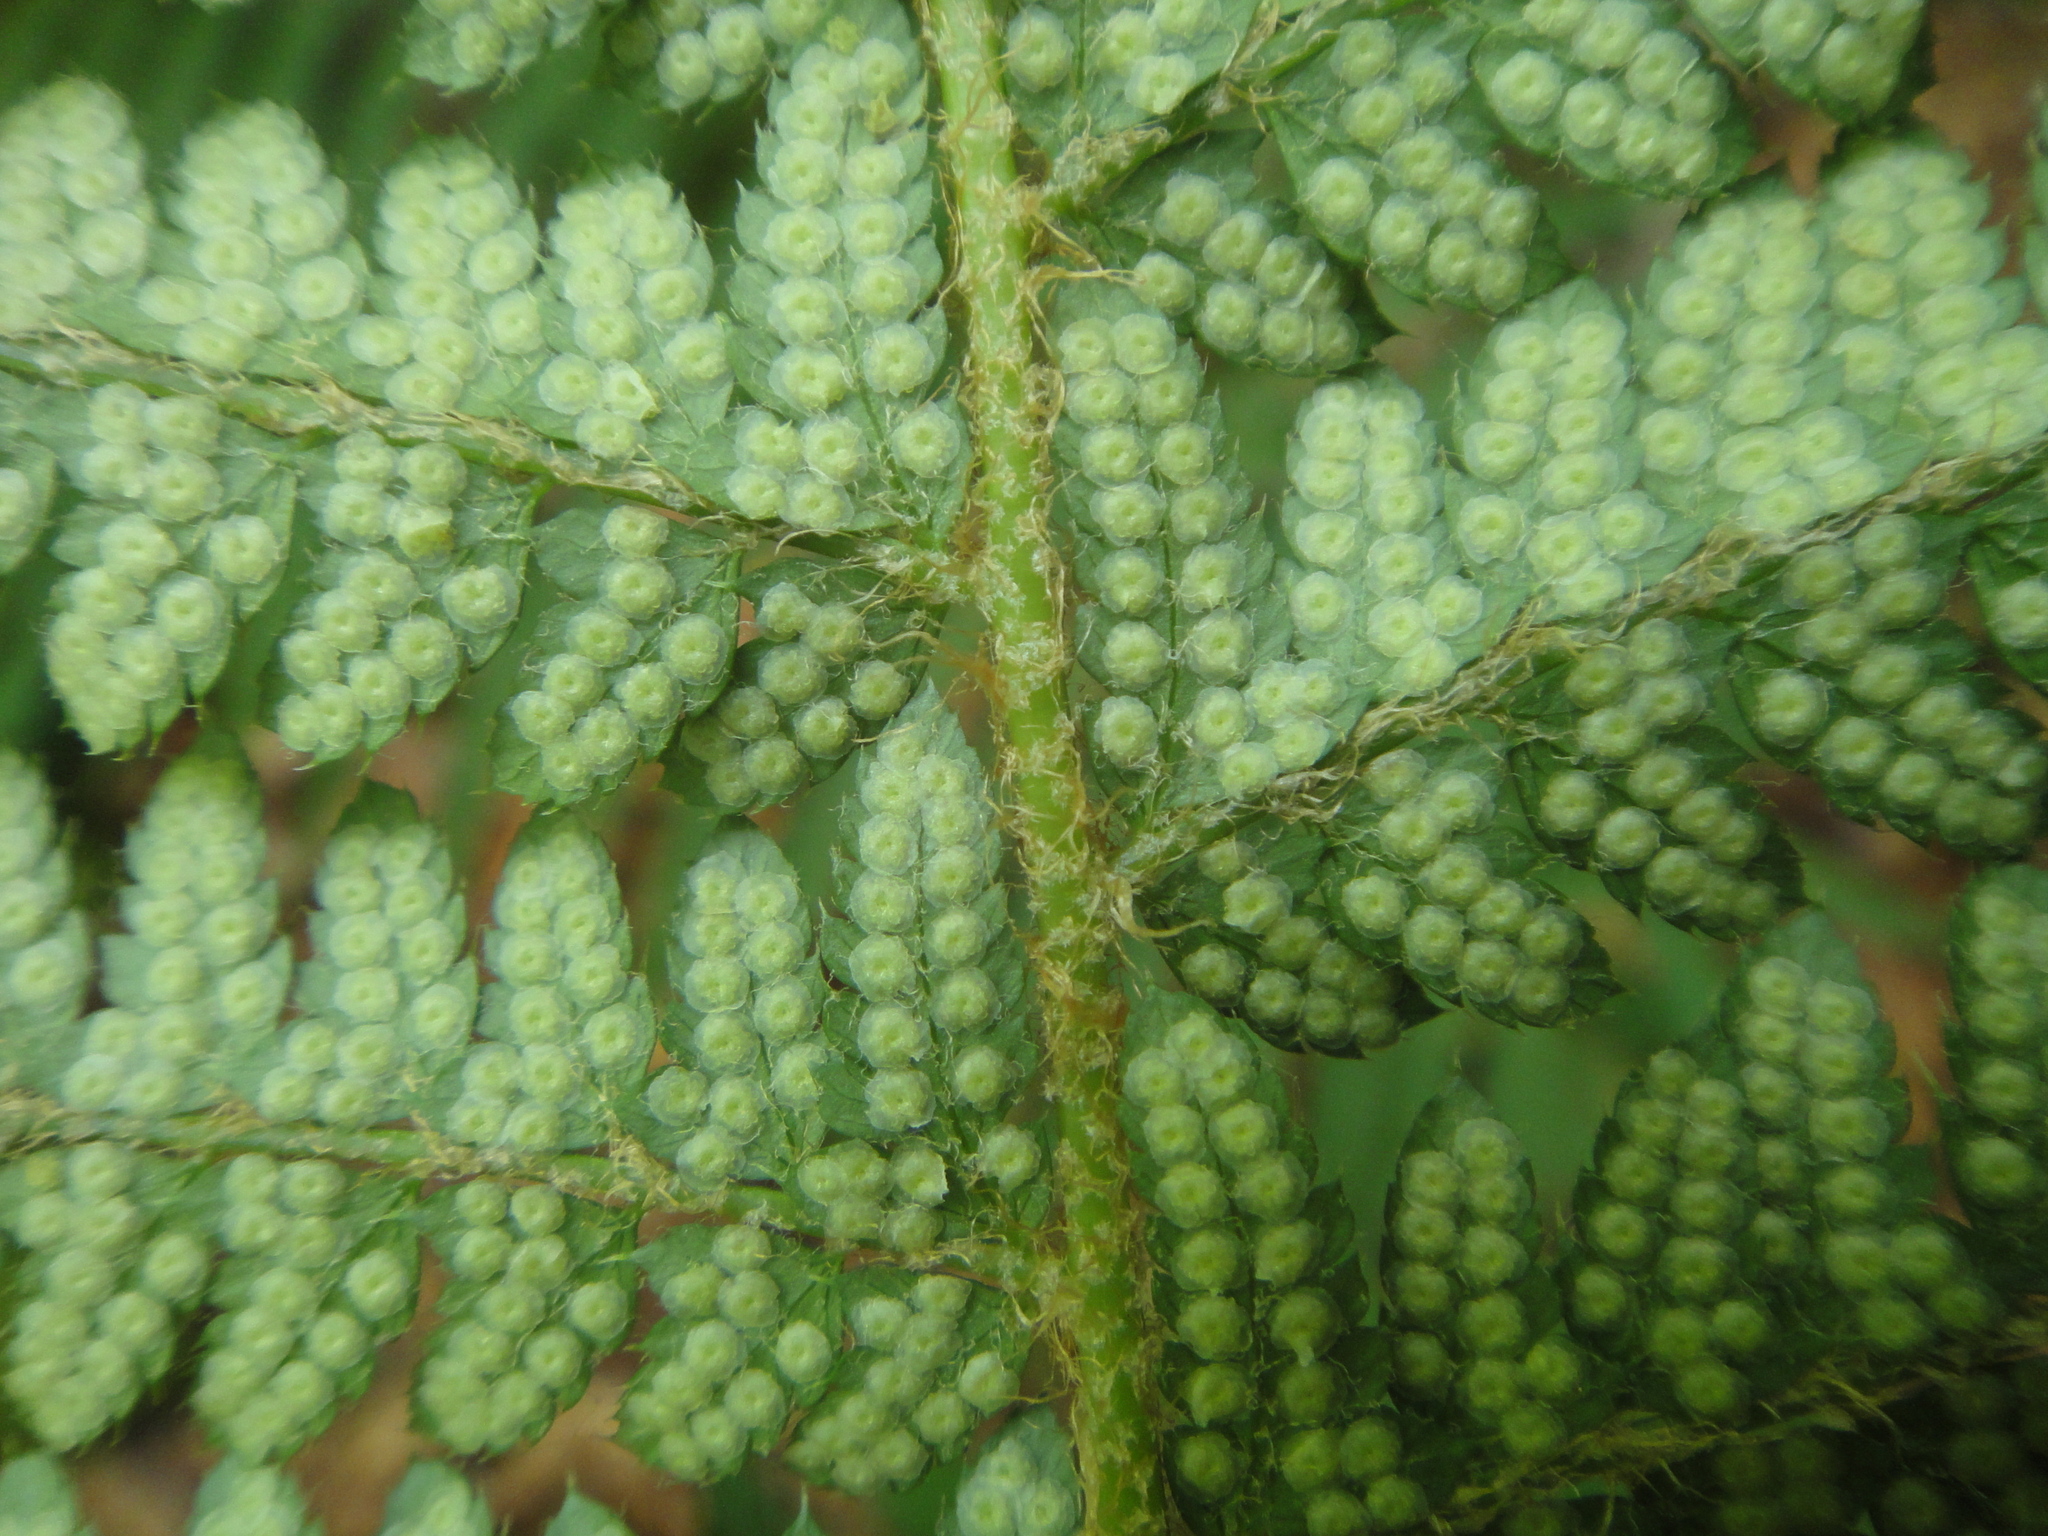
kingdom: Plantae
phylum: Tracheophyta
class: Polypodiopsida
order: Polypodiales
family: Dryopteridaceae
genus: Polystichum
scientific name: Polystichum setiferum
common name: Soft shield-fern
